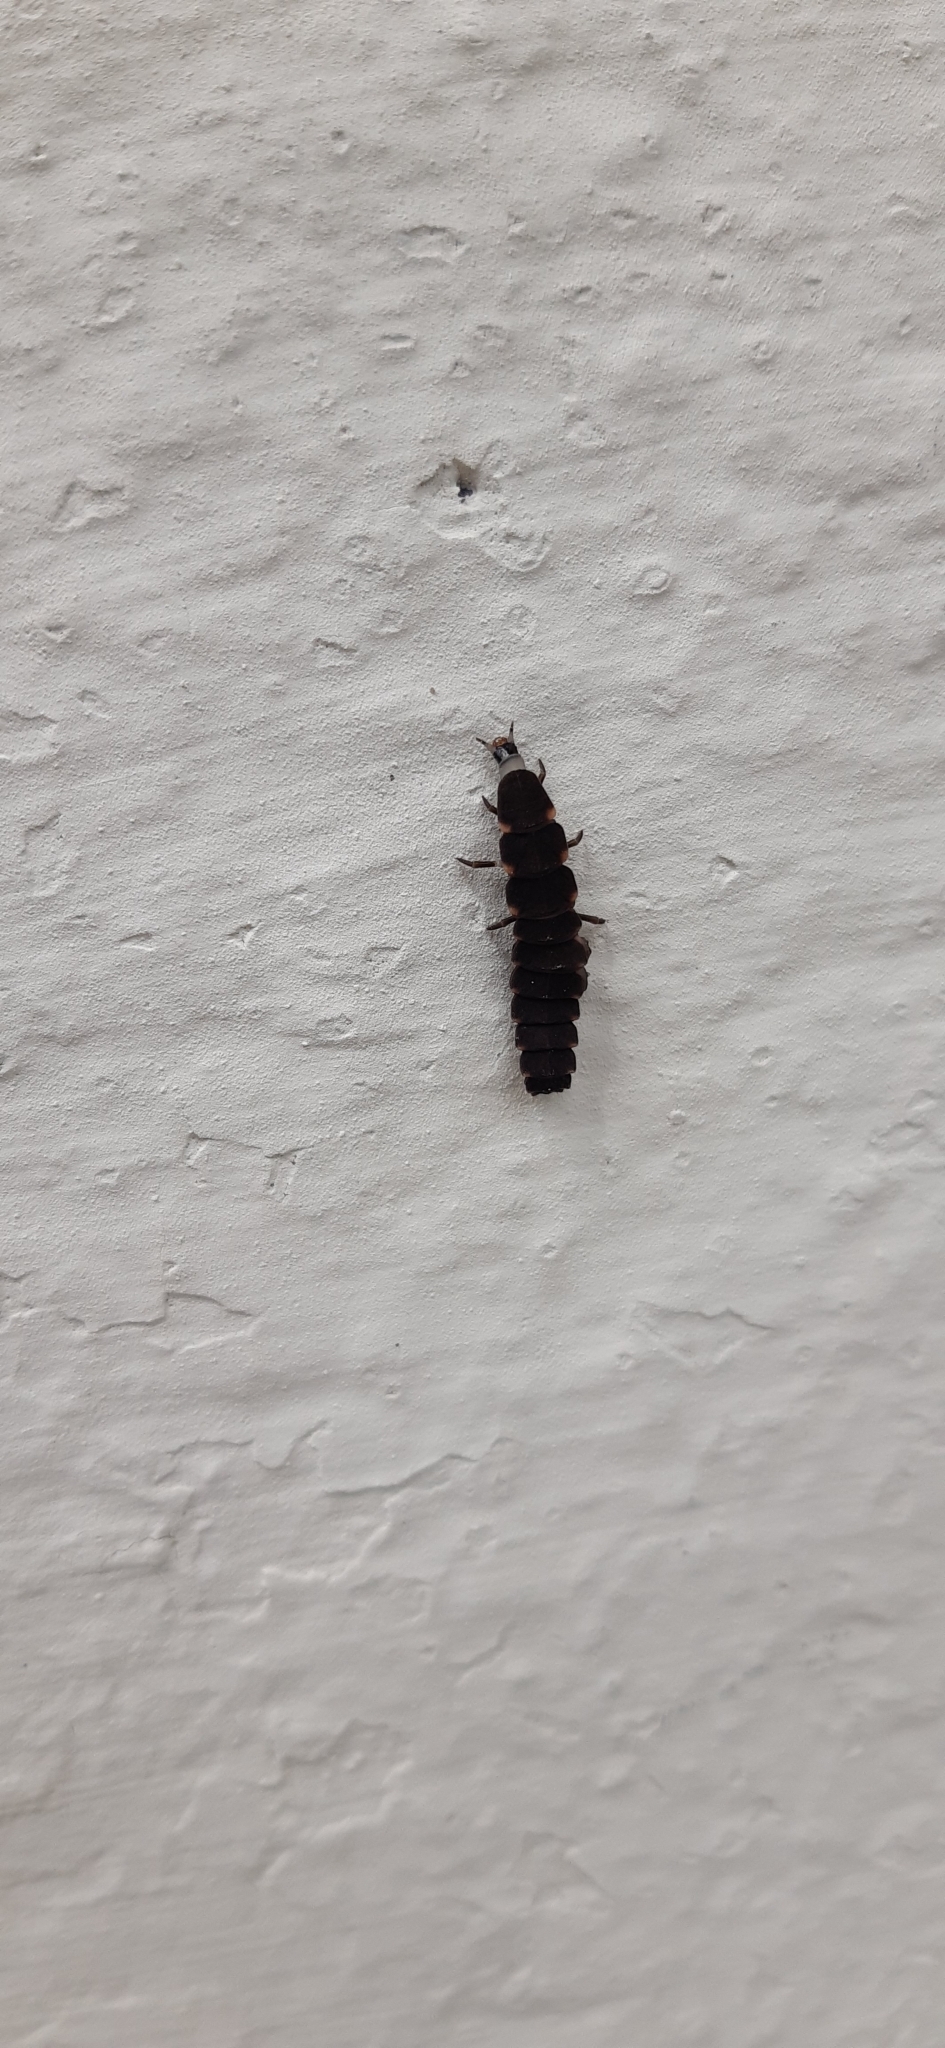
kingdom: Animalia
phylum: Arthropoda
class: Insecta
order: Coleoptera
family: Lampyridae
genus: Lampyris
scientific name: Lampyris noctiluca
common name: Glow-worm
